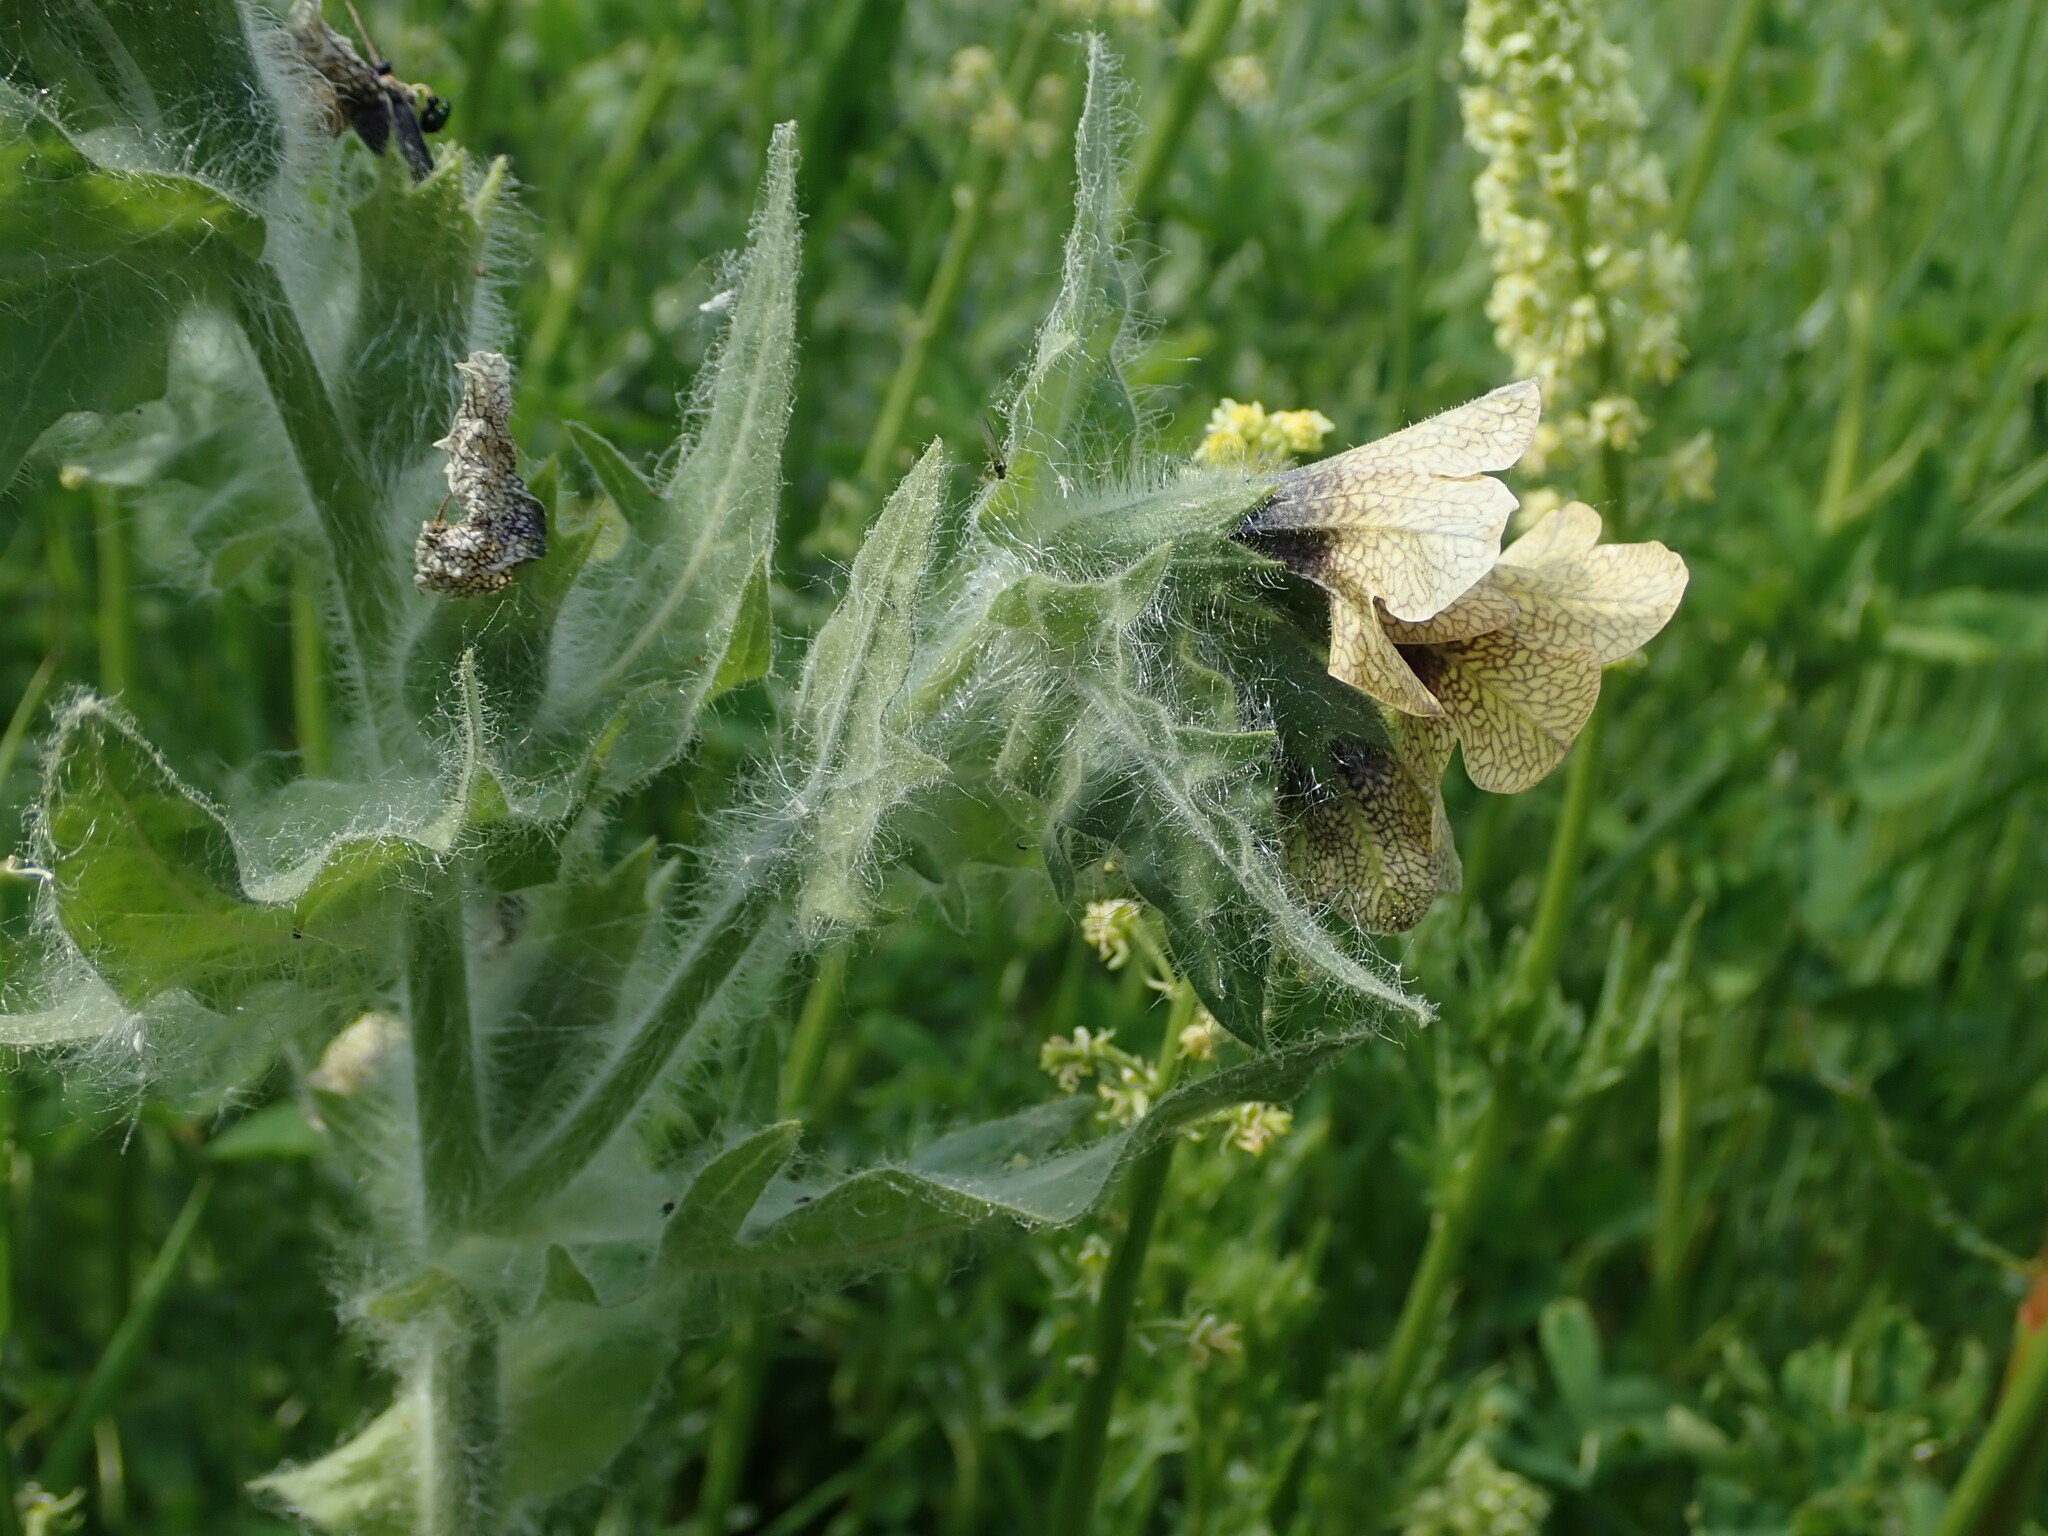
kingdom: Plantae
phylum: Tracheophyta
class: Magnoliopsida
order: Solanales
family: Solanaceae
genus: Hyoscyamus
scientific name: Hyoscyamus niger
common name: Henbane
